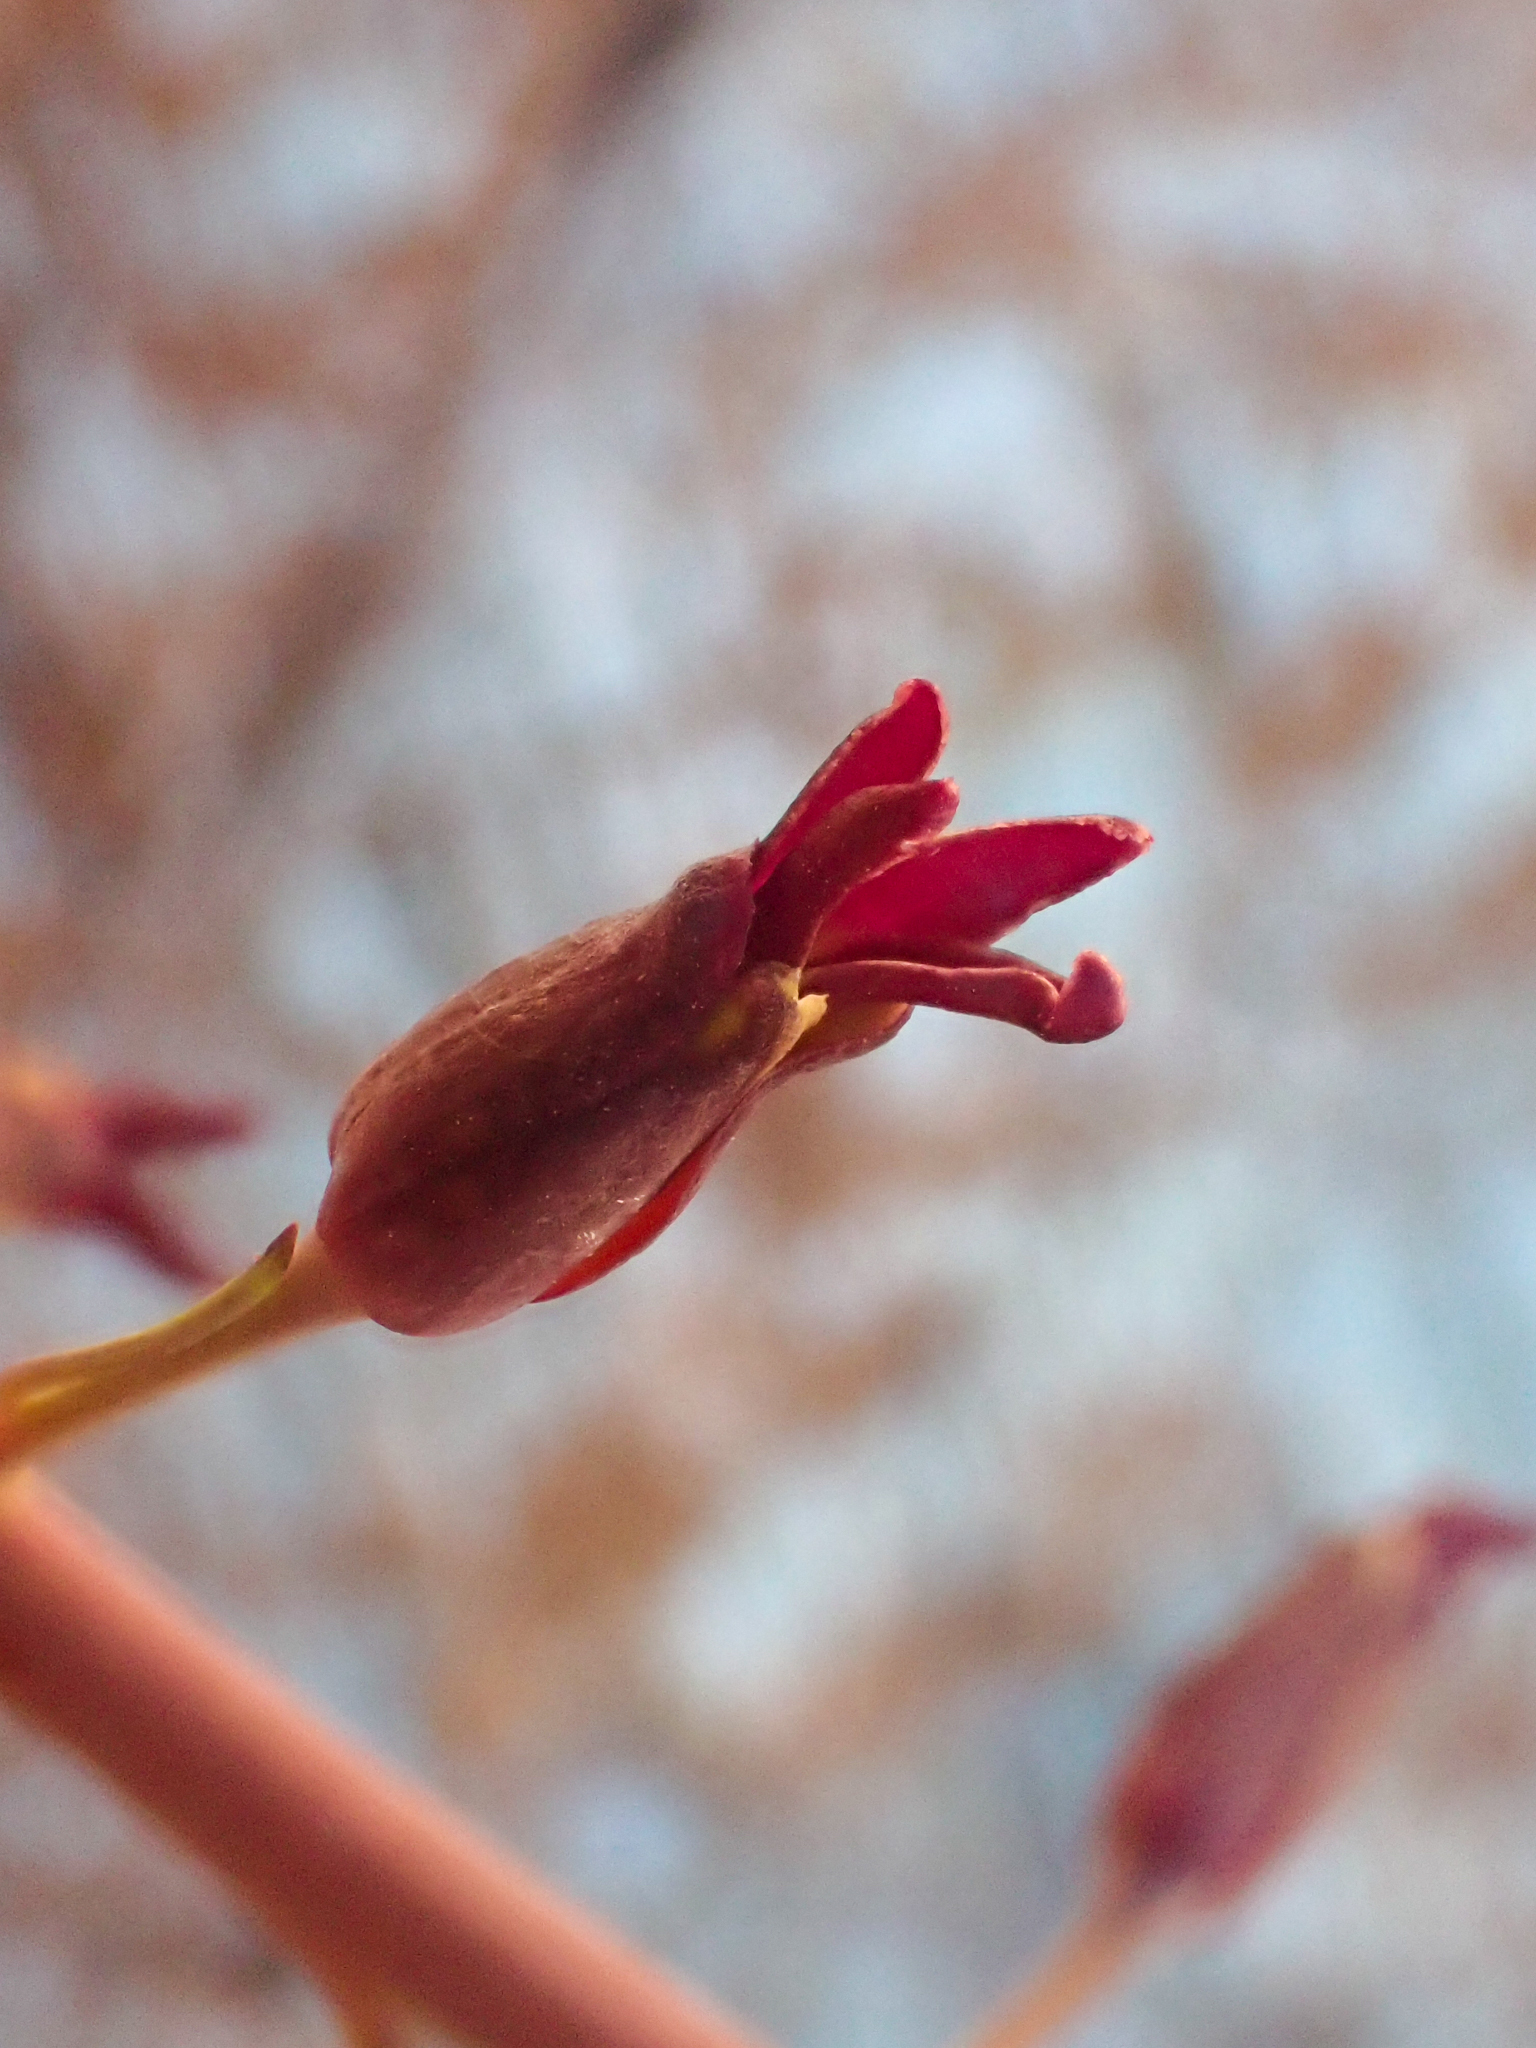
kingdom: Plantae
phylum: Tracheophyta
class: Magnoliopsida
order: Brassicales
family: Brassicaceae
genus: Streptanthus
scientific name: Streptanthus howellii
